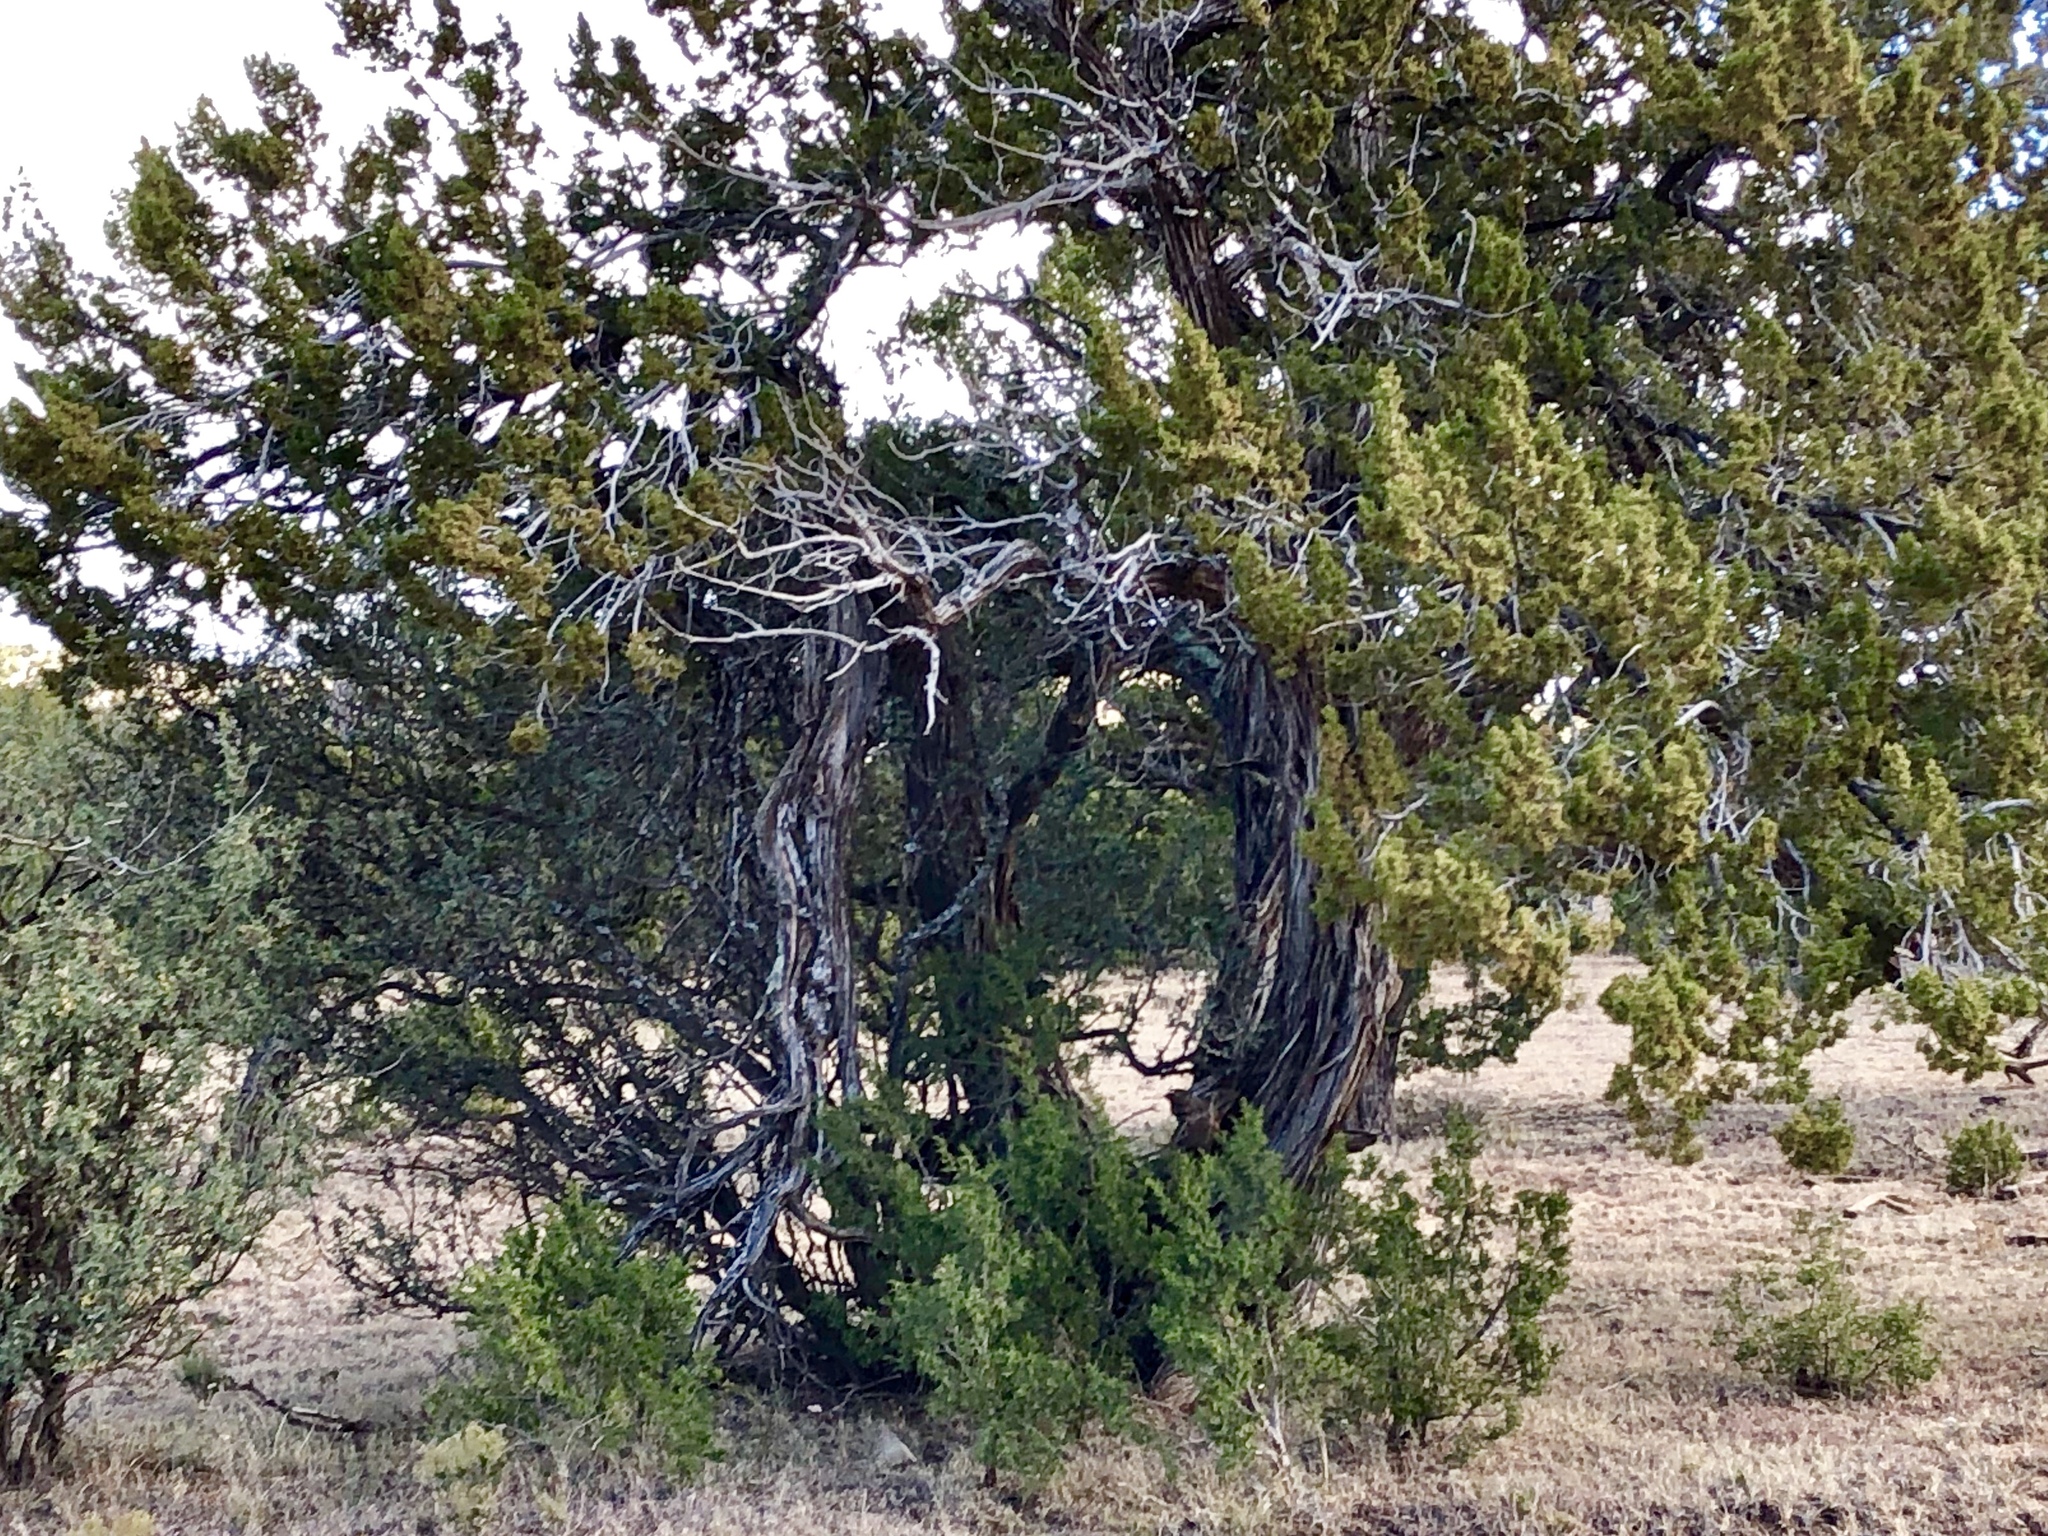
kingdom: Plantae
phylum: Tracheophyta
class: Pinopsida
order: Pinales
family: Cupressaceae
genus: Juniperus
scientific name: Juniperus monosperma
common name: One-seed juniper
